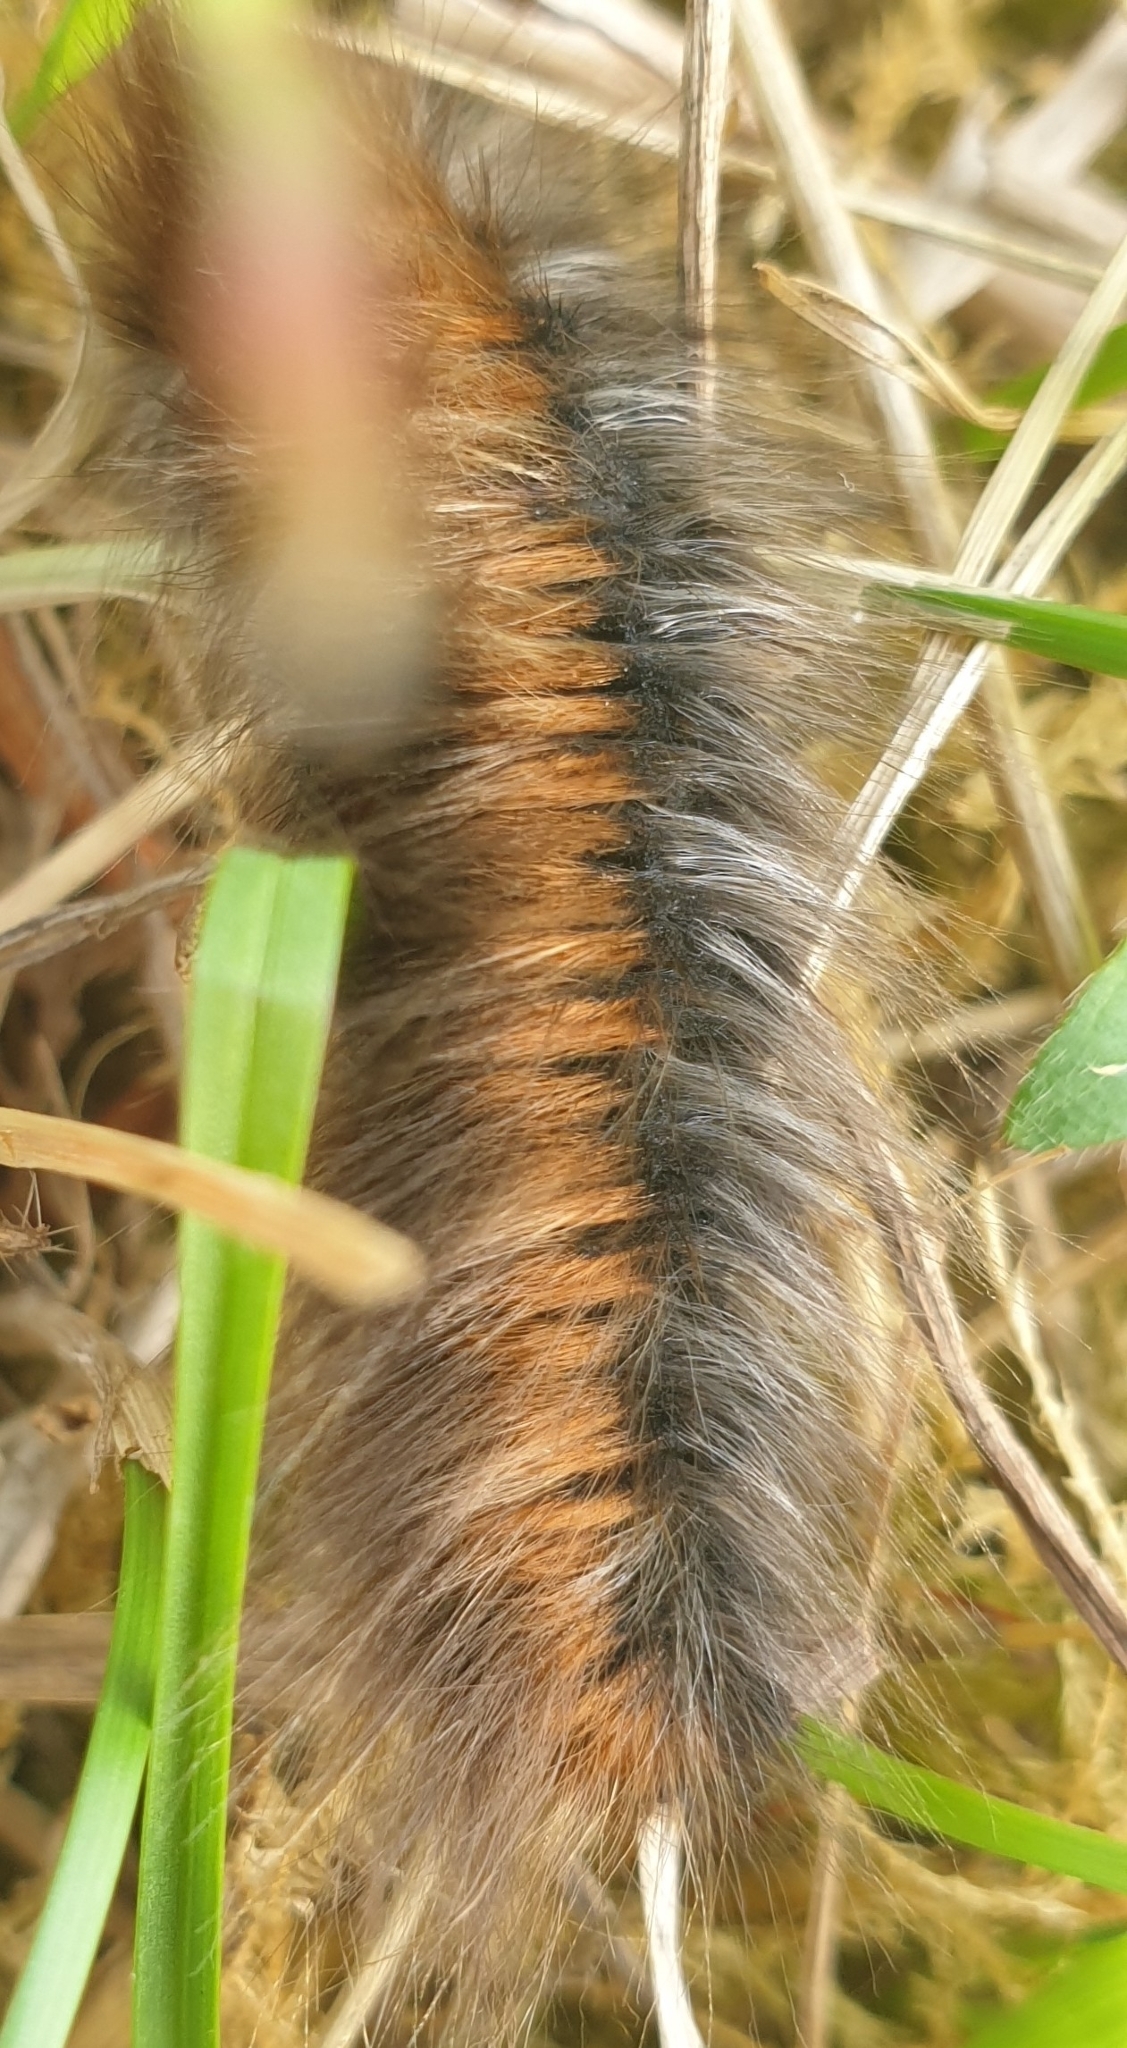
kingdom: Animalia
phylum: Arthropoda
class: Insecta
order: Lepidoptera
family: Lasiocampidae
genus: Macrothylacia
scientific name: Macrothylacia rubi
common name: Fox moth
